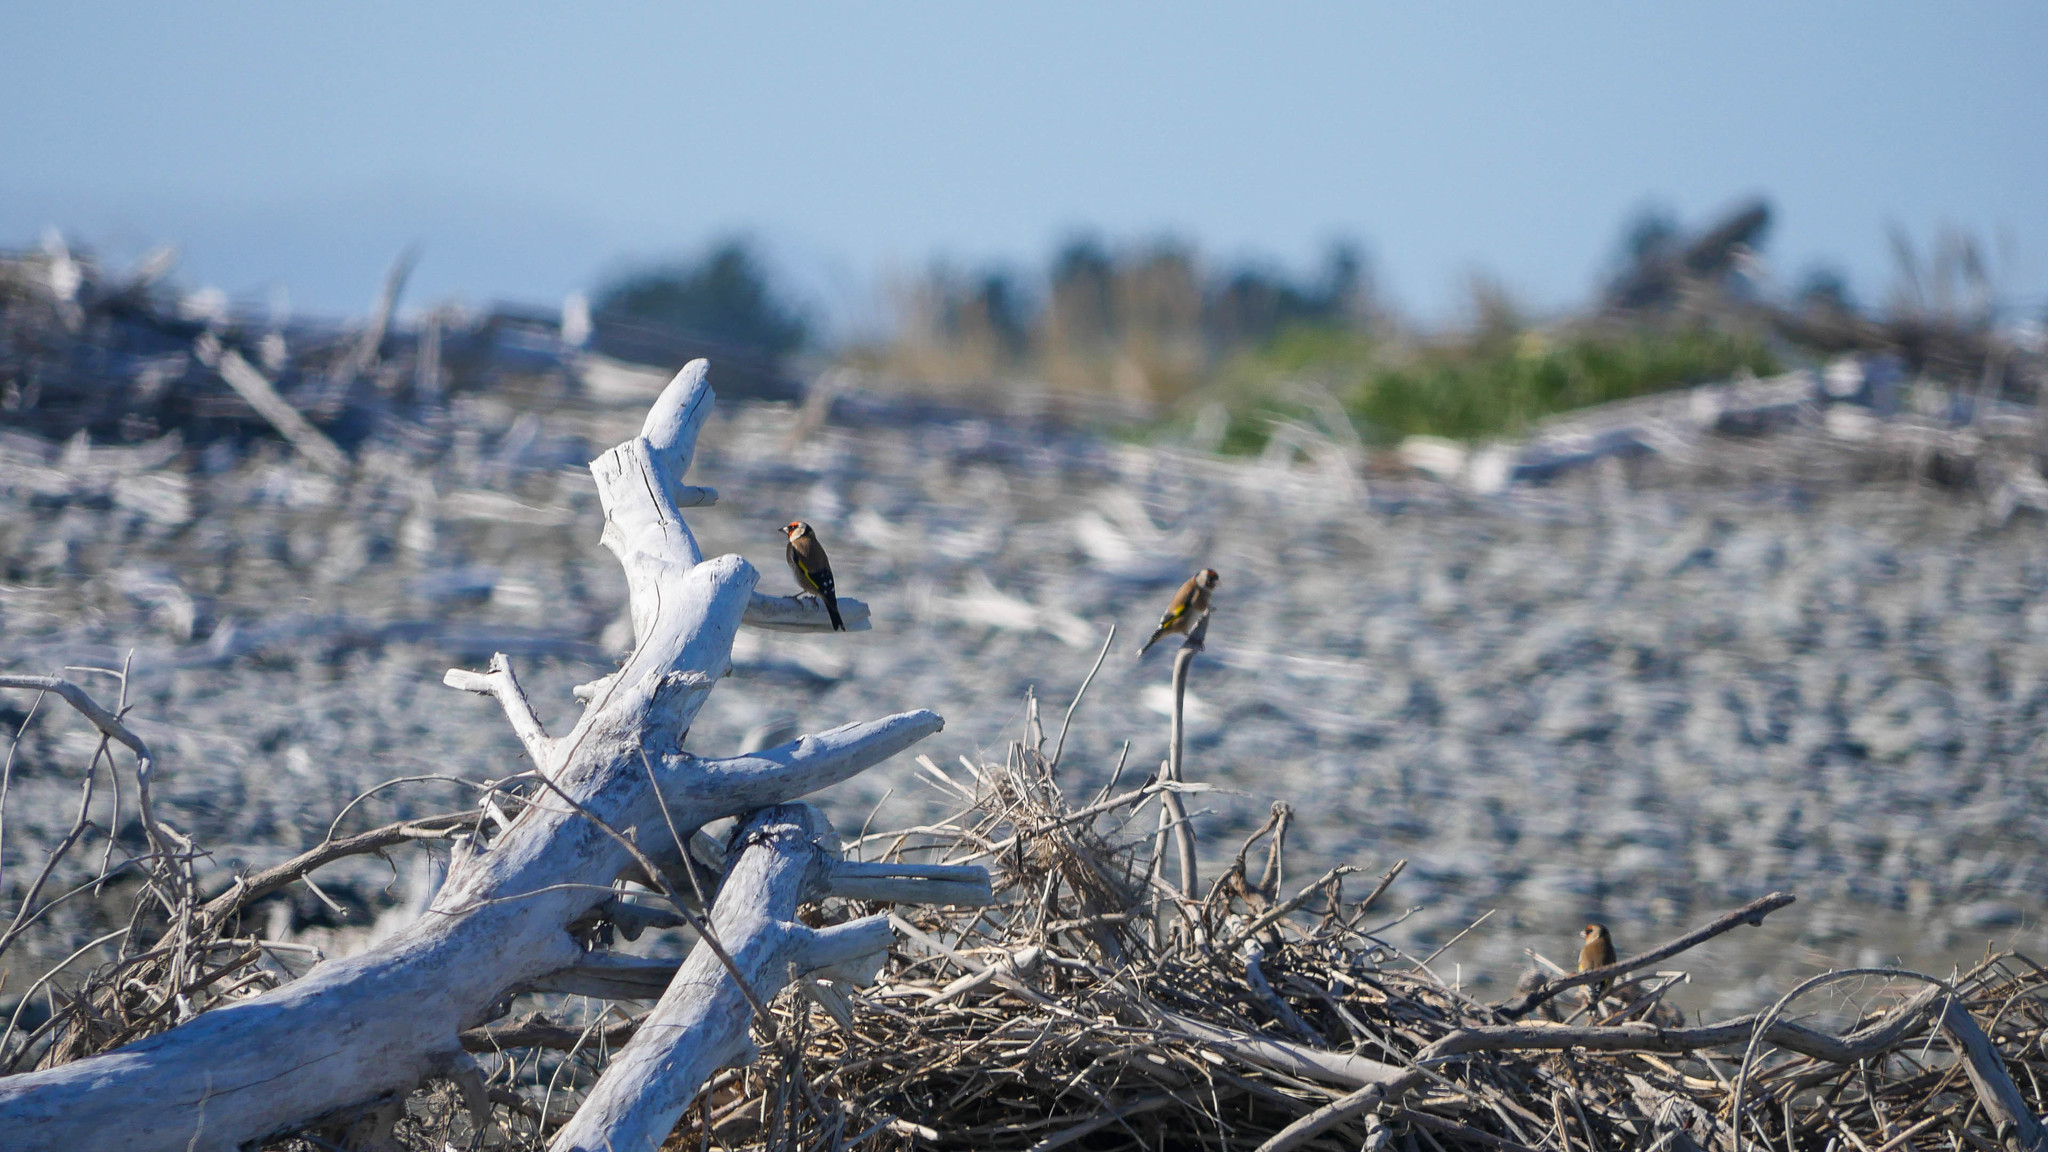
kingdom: Animalia
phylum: Chordata
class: Aves
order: Passeriformes
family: Fringillidae
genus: Carduelis
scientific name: Carduelis carduelis
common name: European goldfinch
